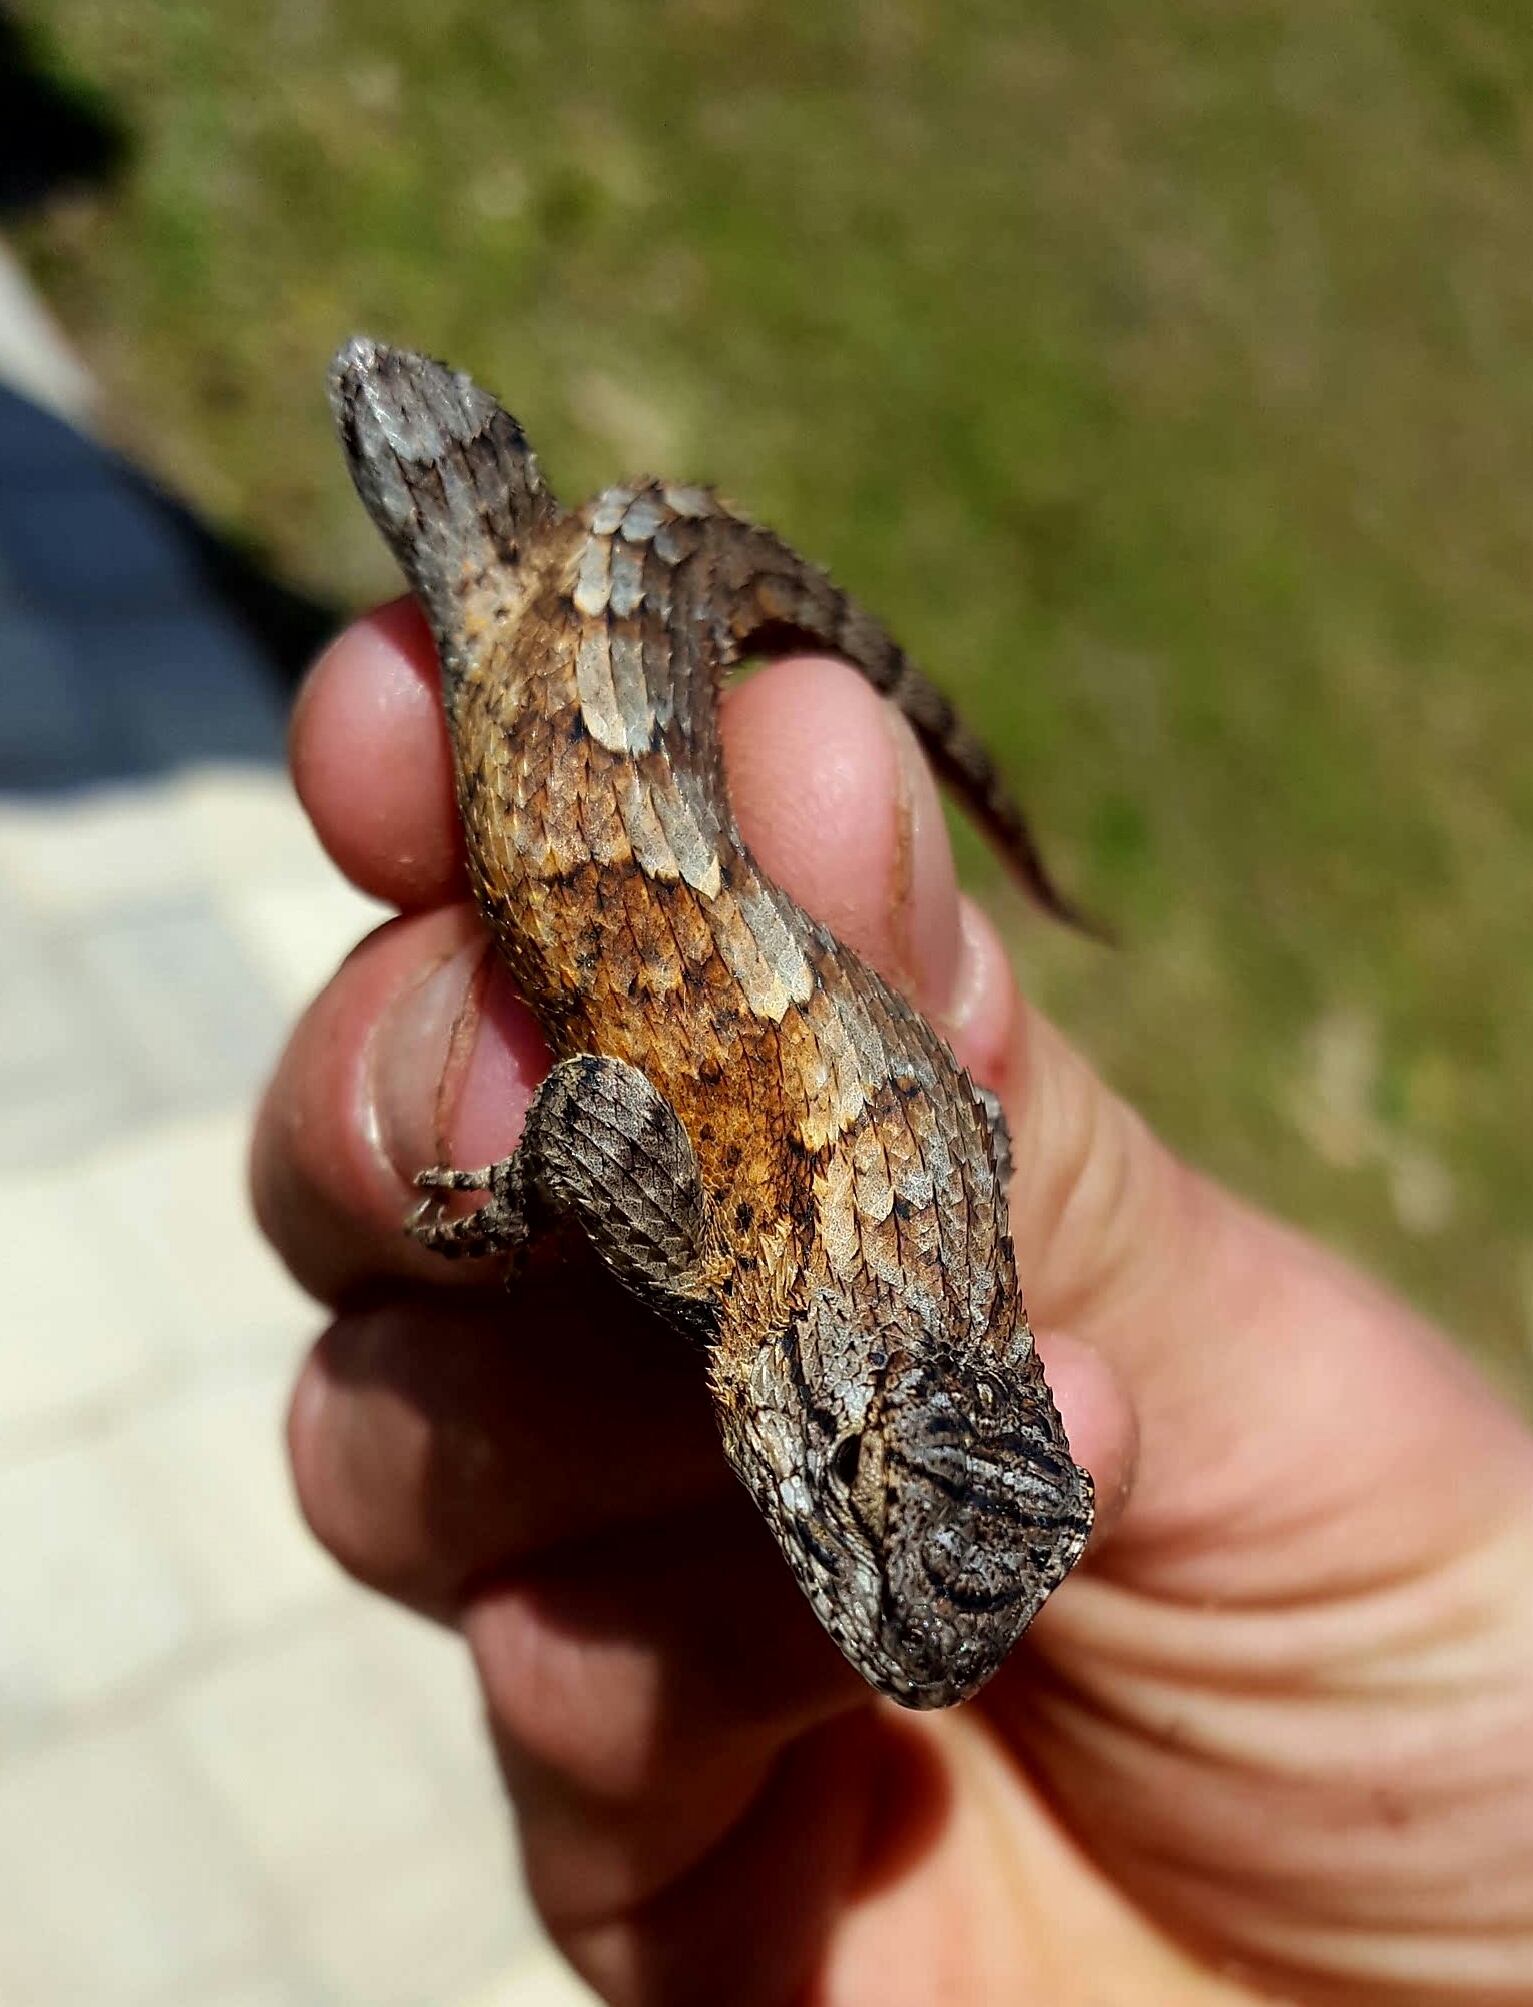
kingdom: Animalia
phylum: Chordata
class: Squamata
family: Phrynosomatidae
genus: Sceloporus
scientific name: Sceloporus undulatus
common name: Eastern fence lizard
